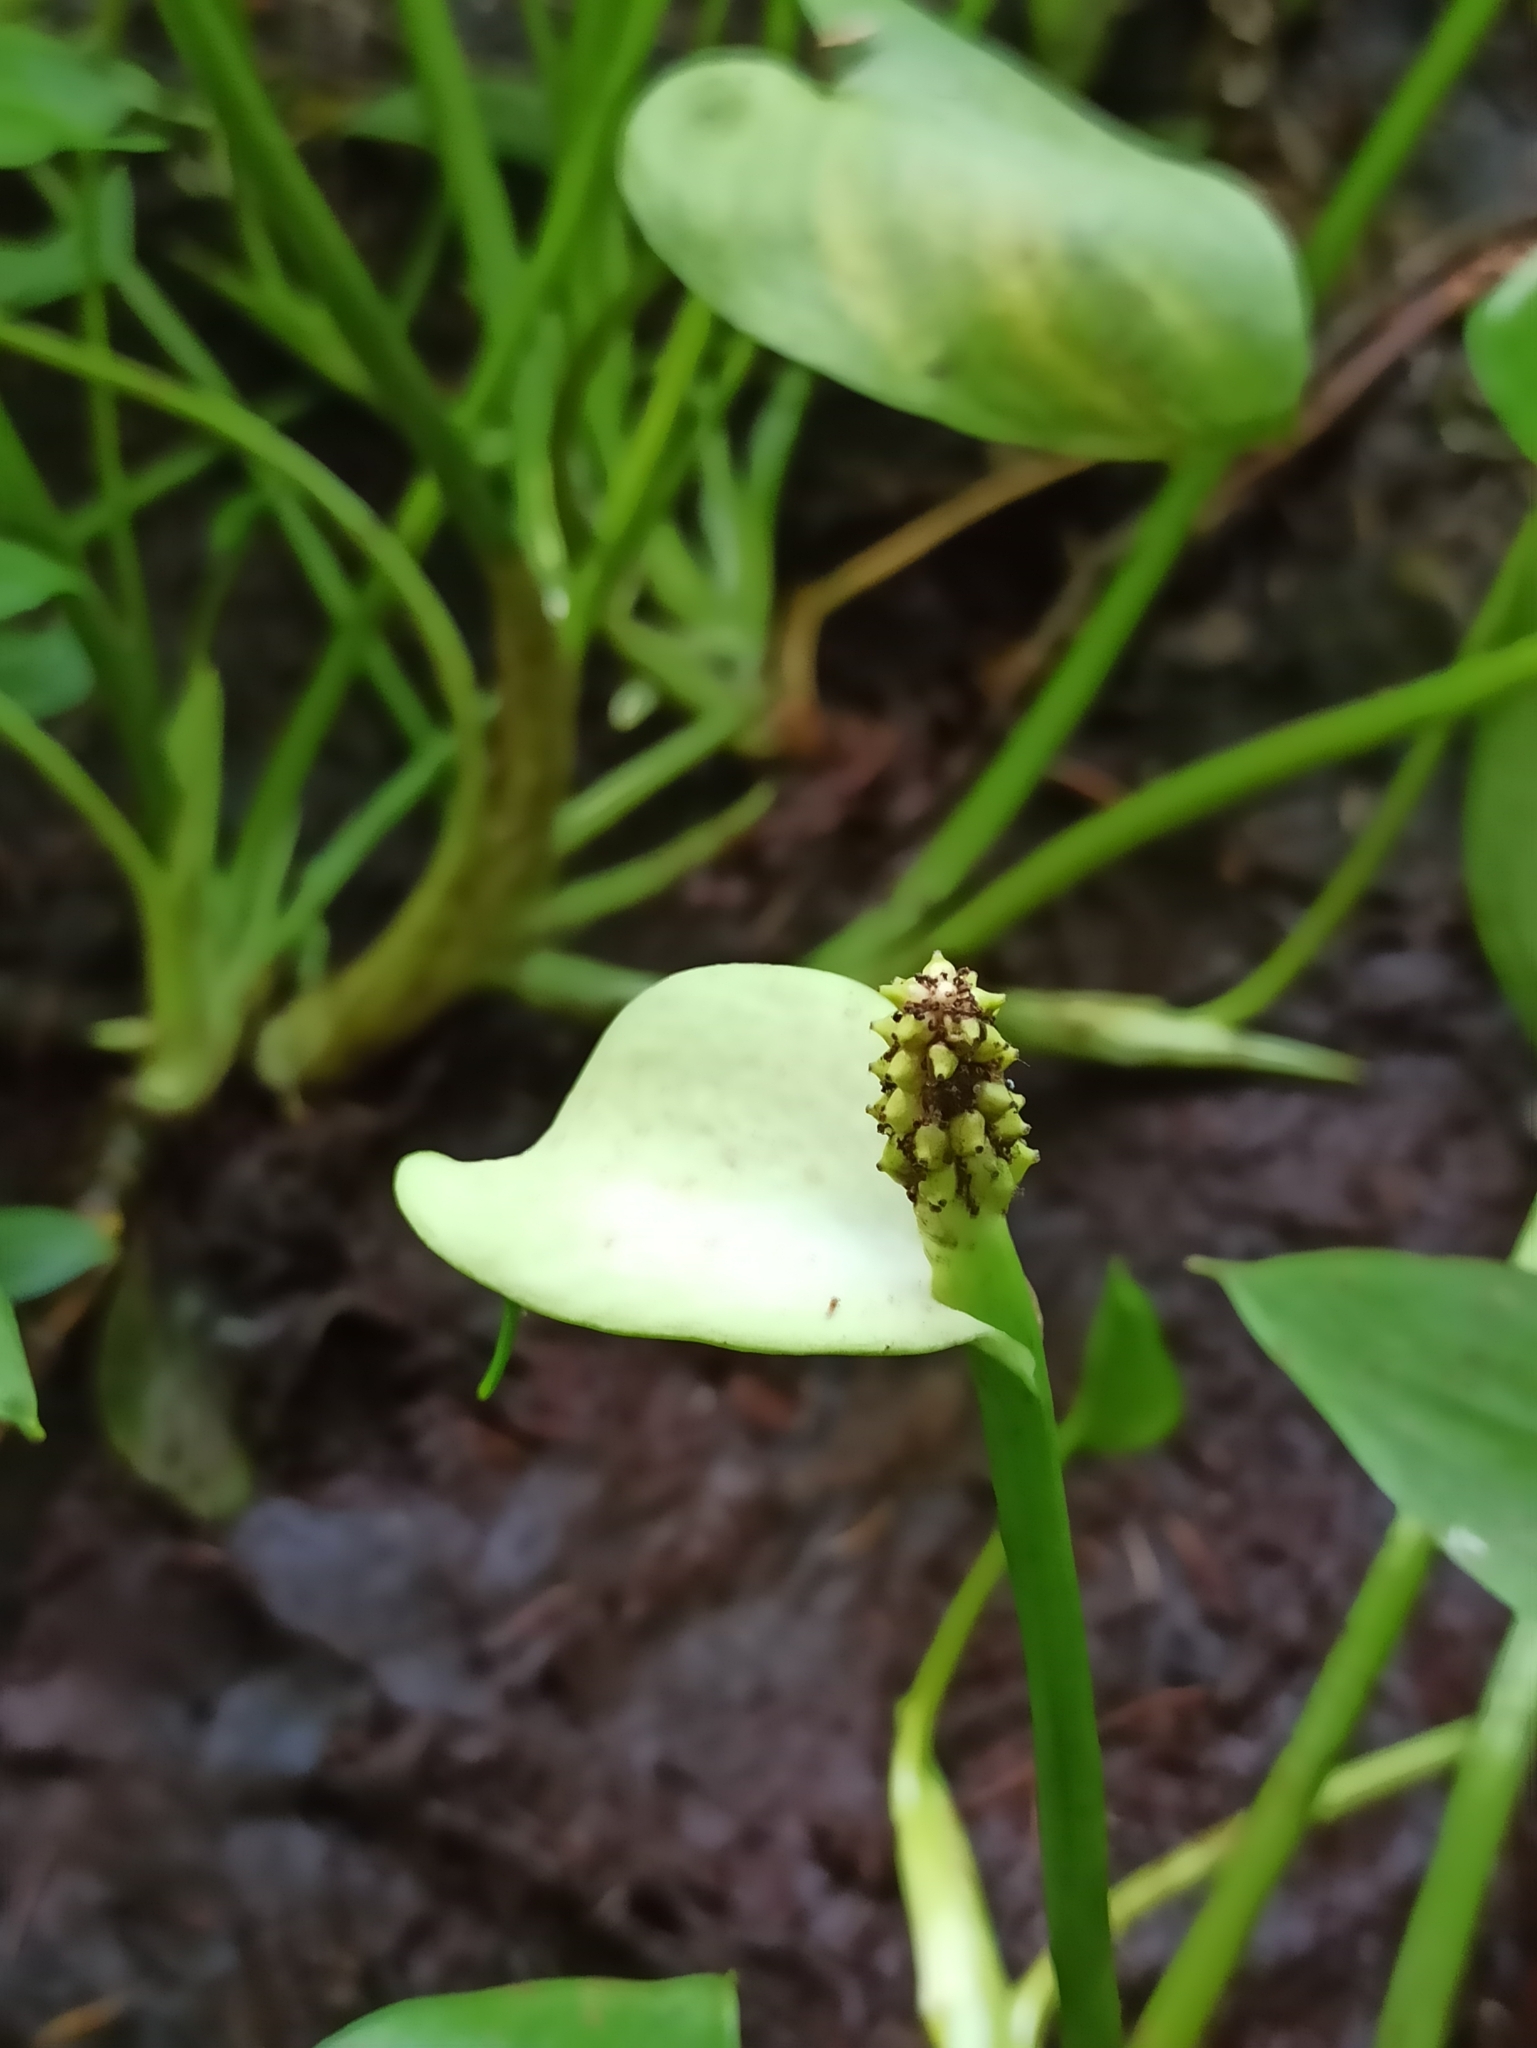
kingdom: Plantae
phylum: Tracheophyta
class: Liliopsida
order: Alismatales
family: Araceae
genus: Calla
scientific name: Calla palustris
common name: Bog arum
